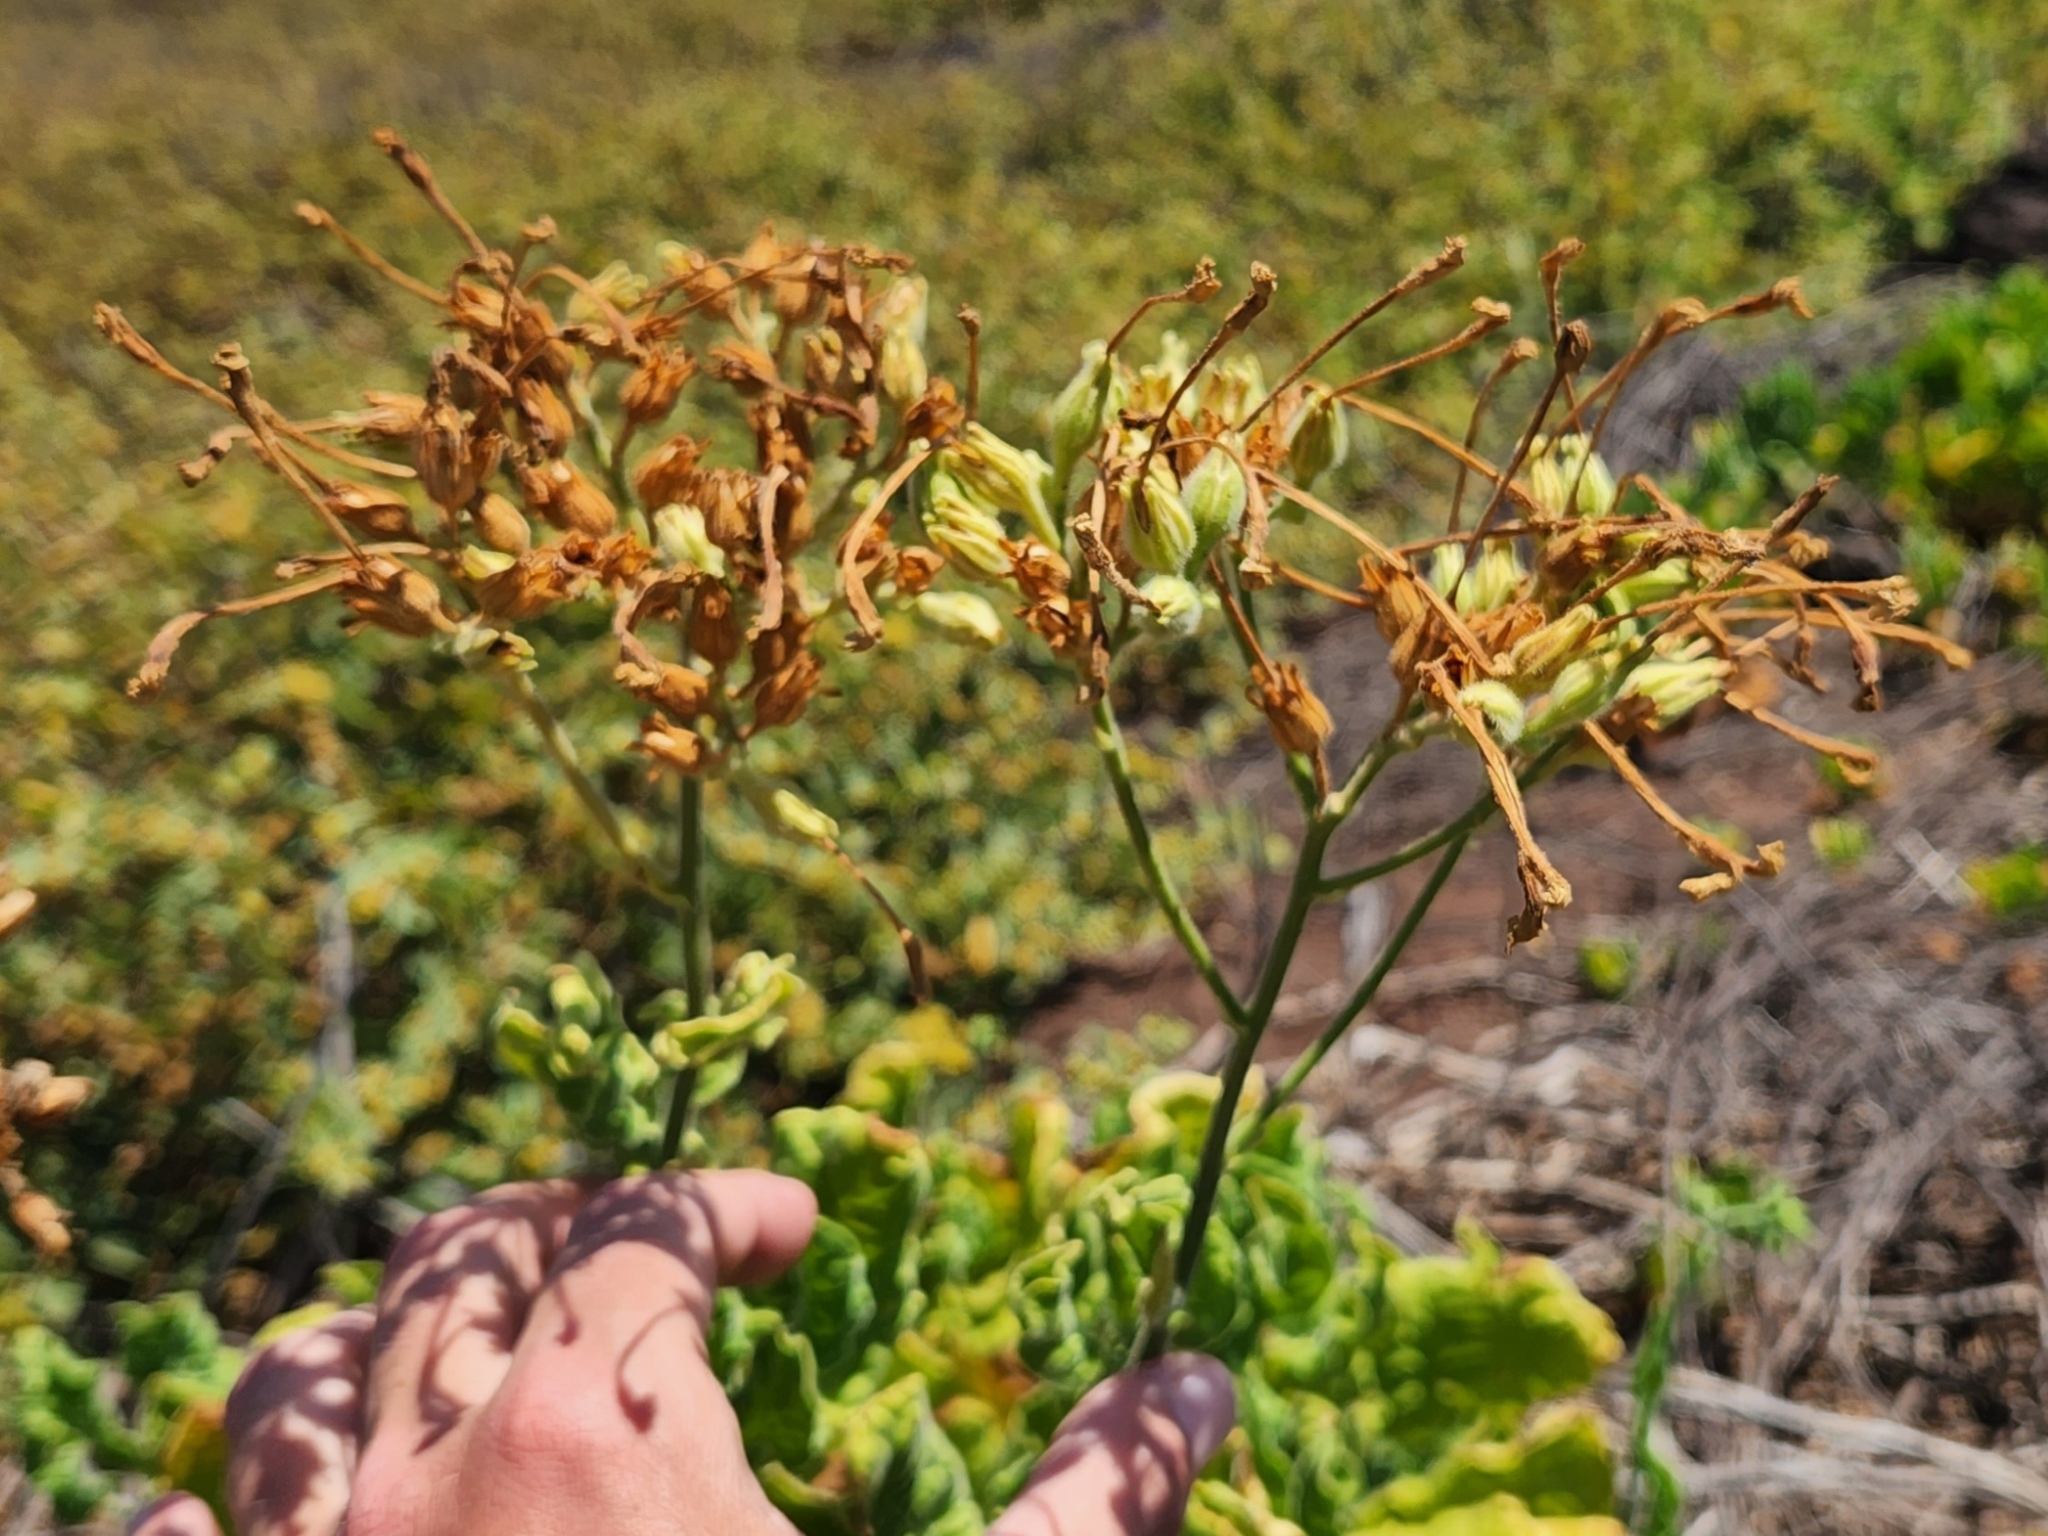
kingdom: Plantae
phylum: Tracheophyta
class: Magnoliopsida
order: Solanales
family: Solanaceae
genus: Nicotiana
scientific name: Nicotiana stocktonii
